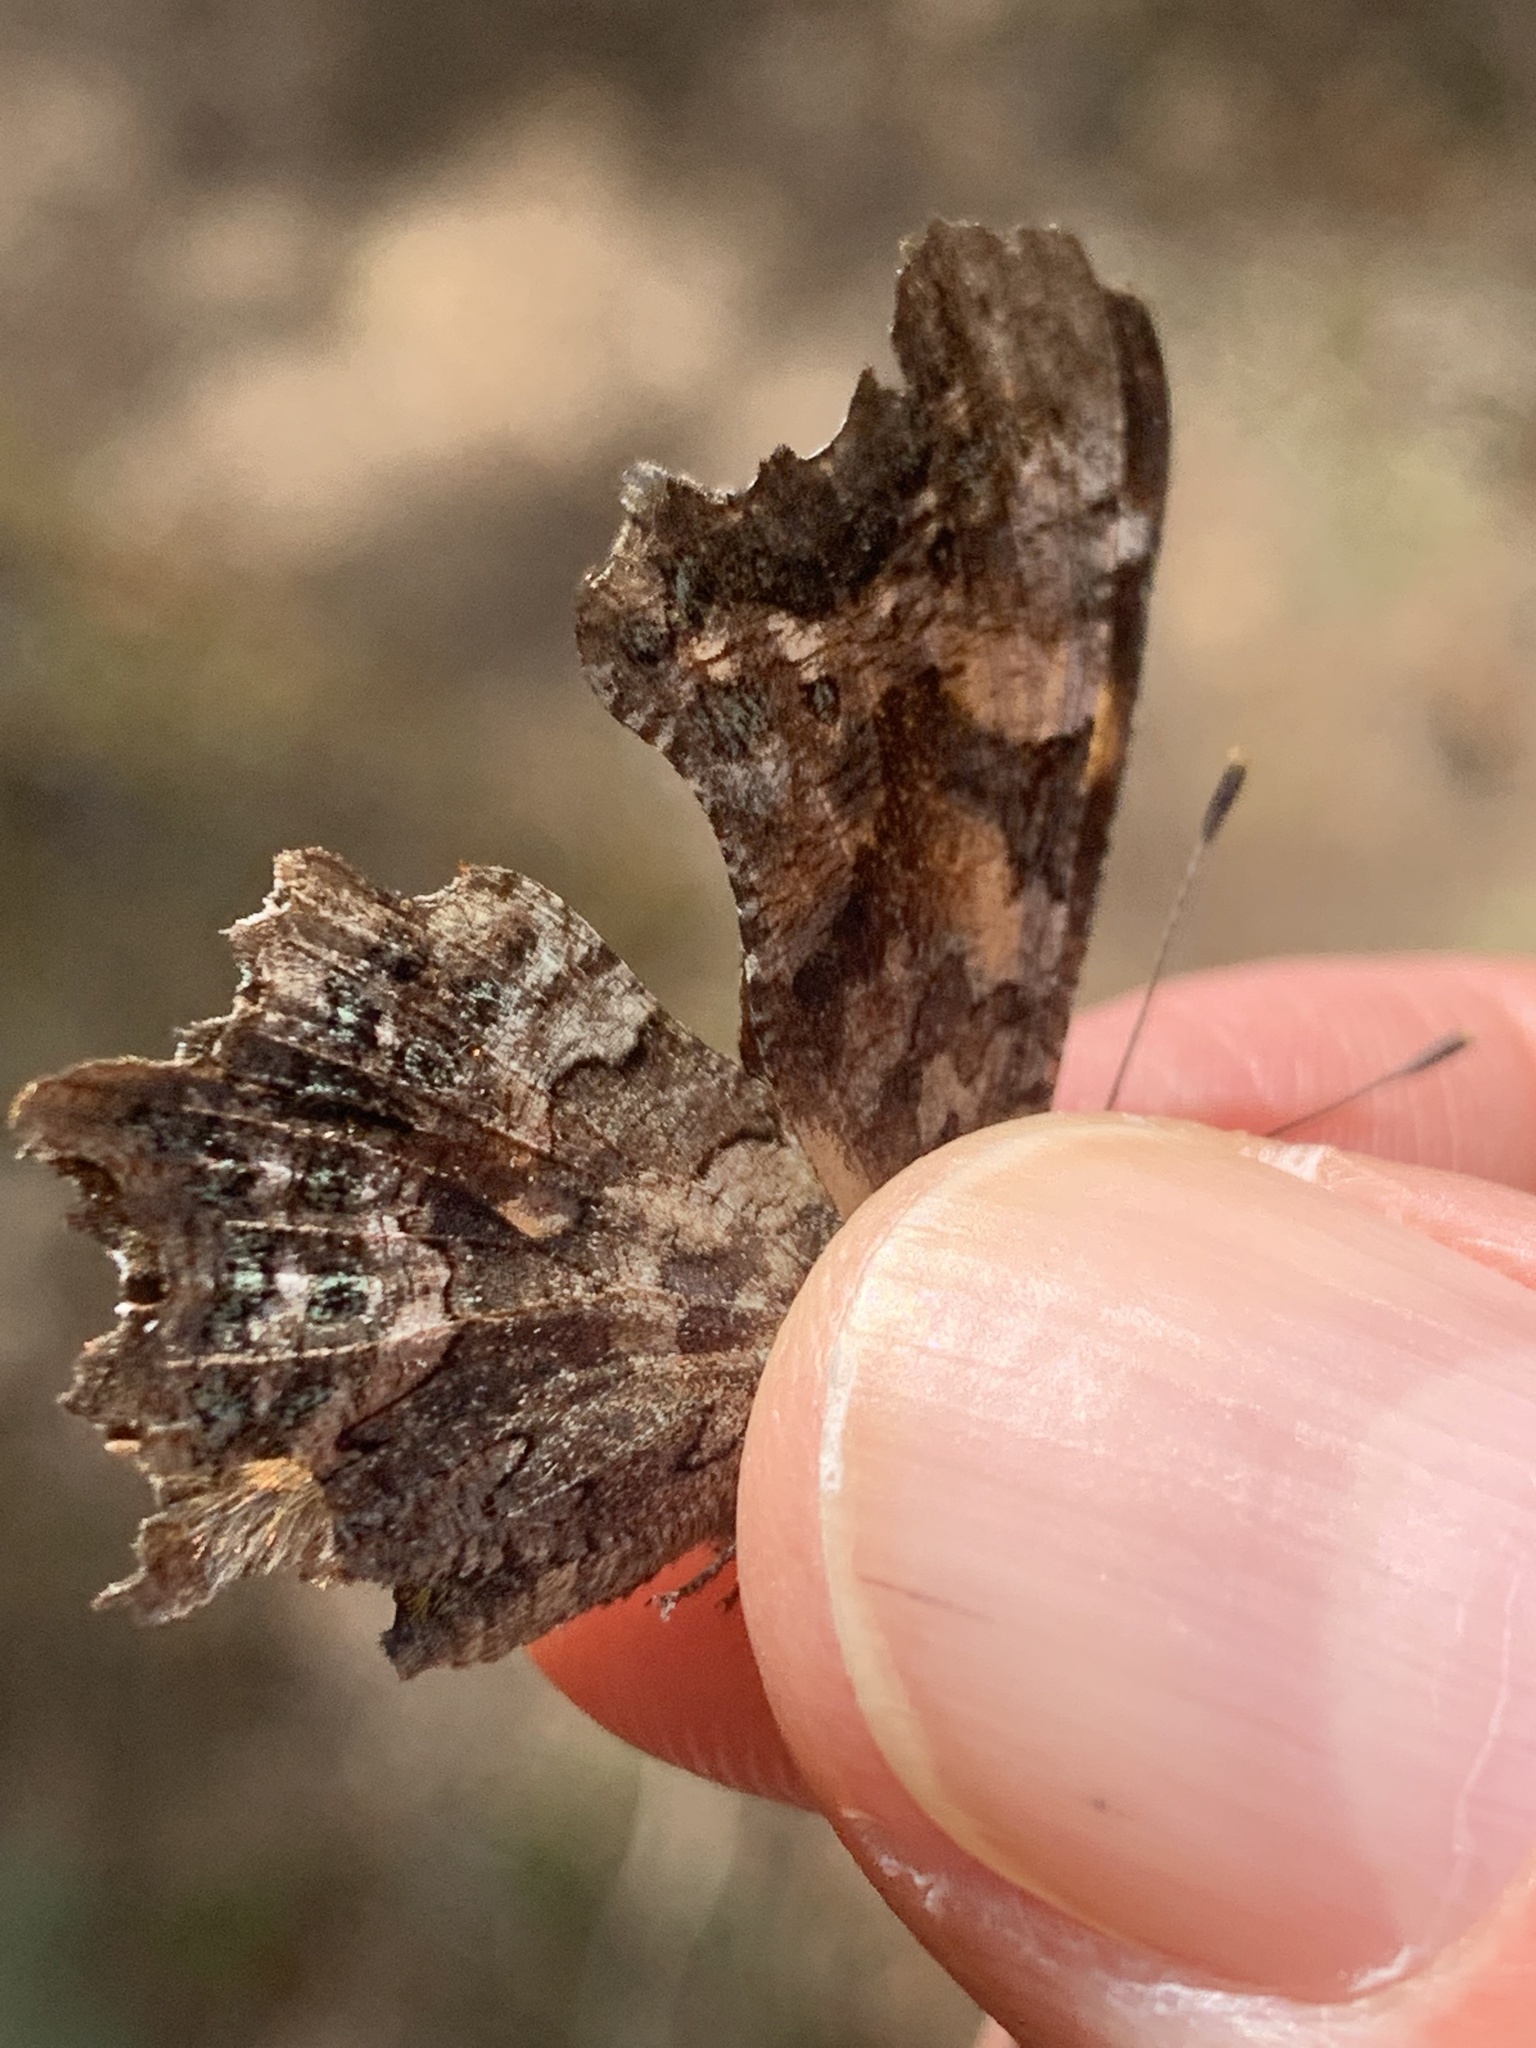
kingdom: Animalia
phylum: Arthropoda
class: Insecta
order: Lepidoptera
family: Nymphalidae
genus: Polygonia
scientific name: Polygonia faunus
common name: Green comma
